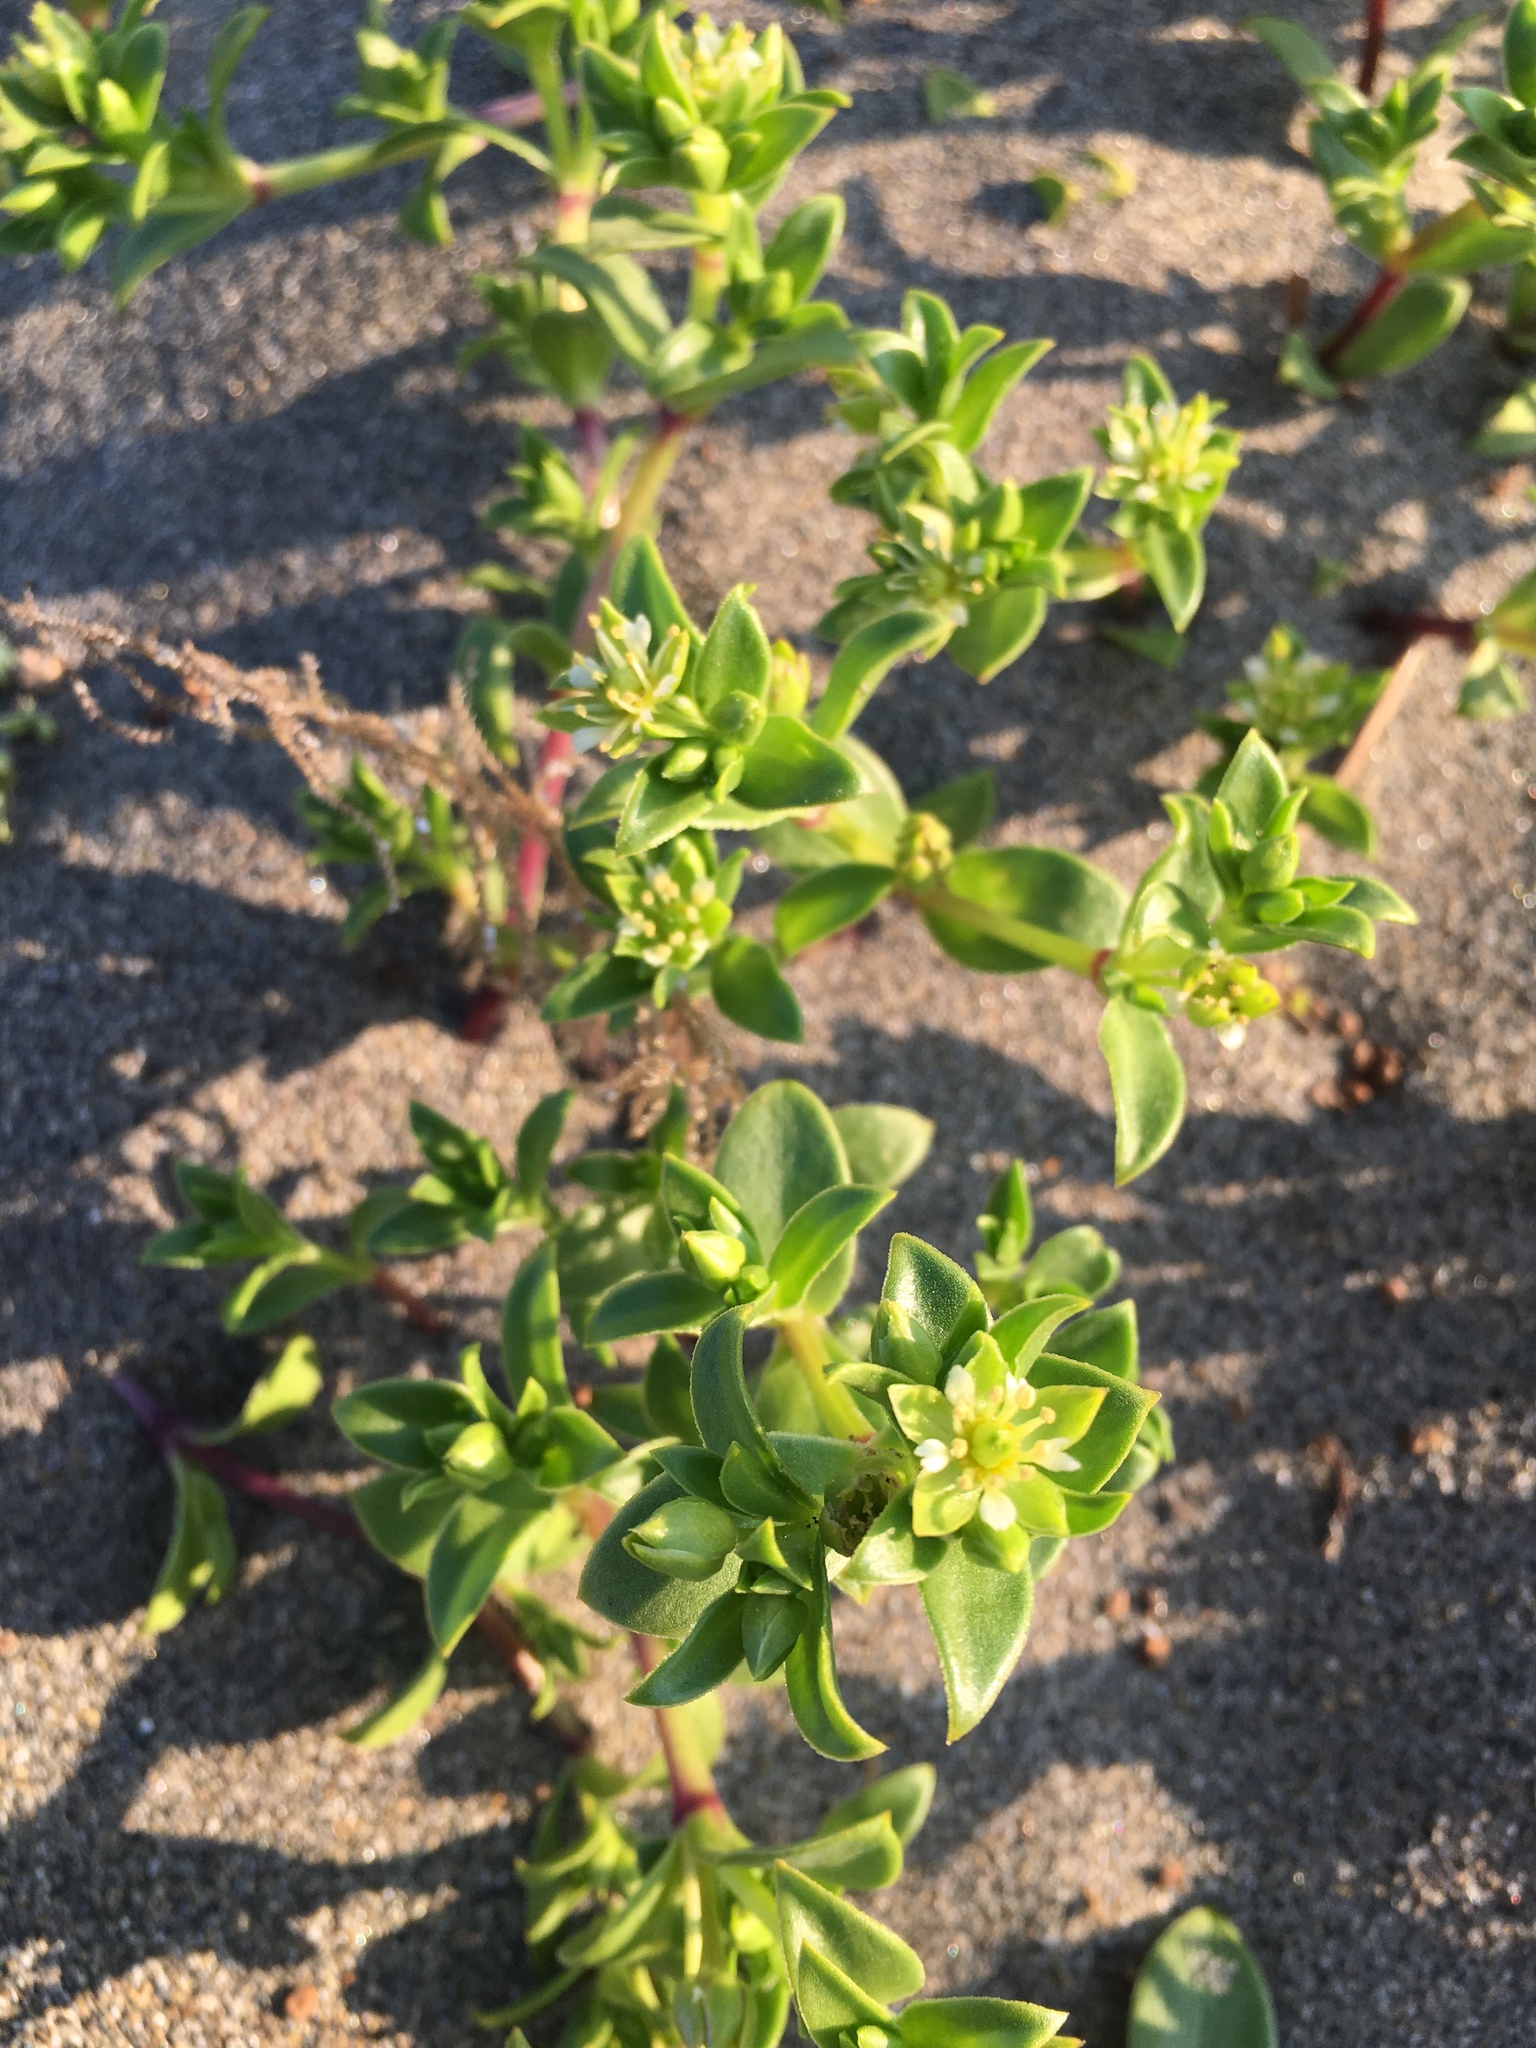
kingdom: Plantae
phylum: Tracheophyta
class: Magnoliopsida
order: Caryophyllales
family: Caryophyllaceae
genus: Honckenya
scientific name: Honckenya peploides
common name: Sea sandwort
